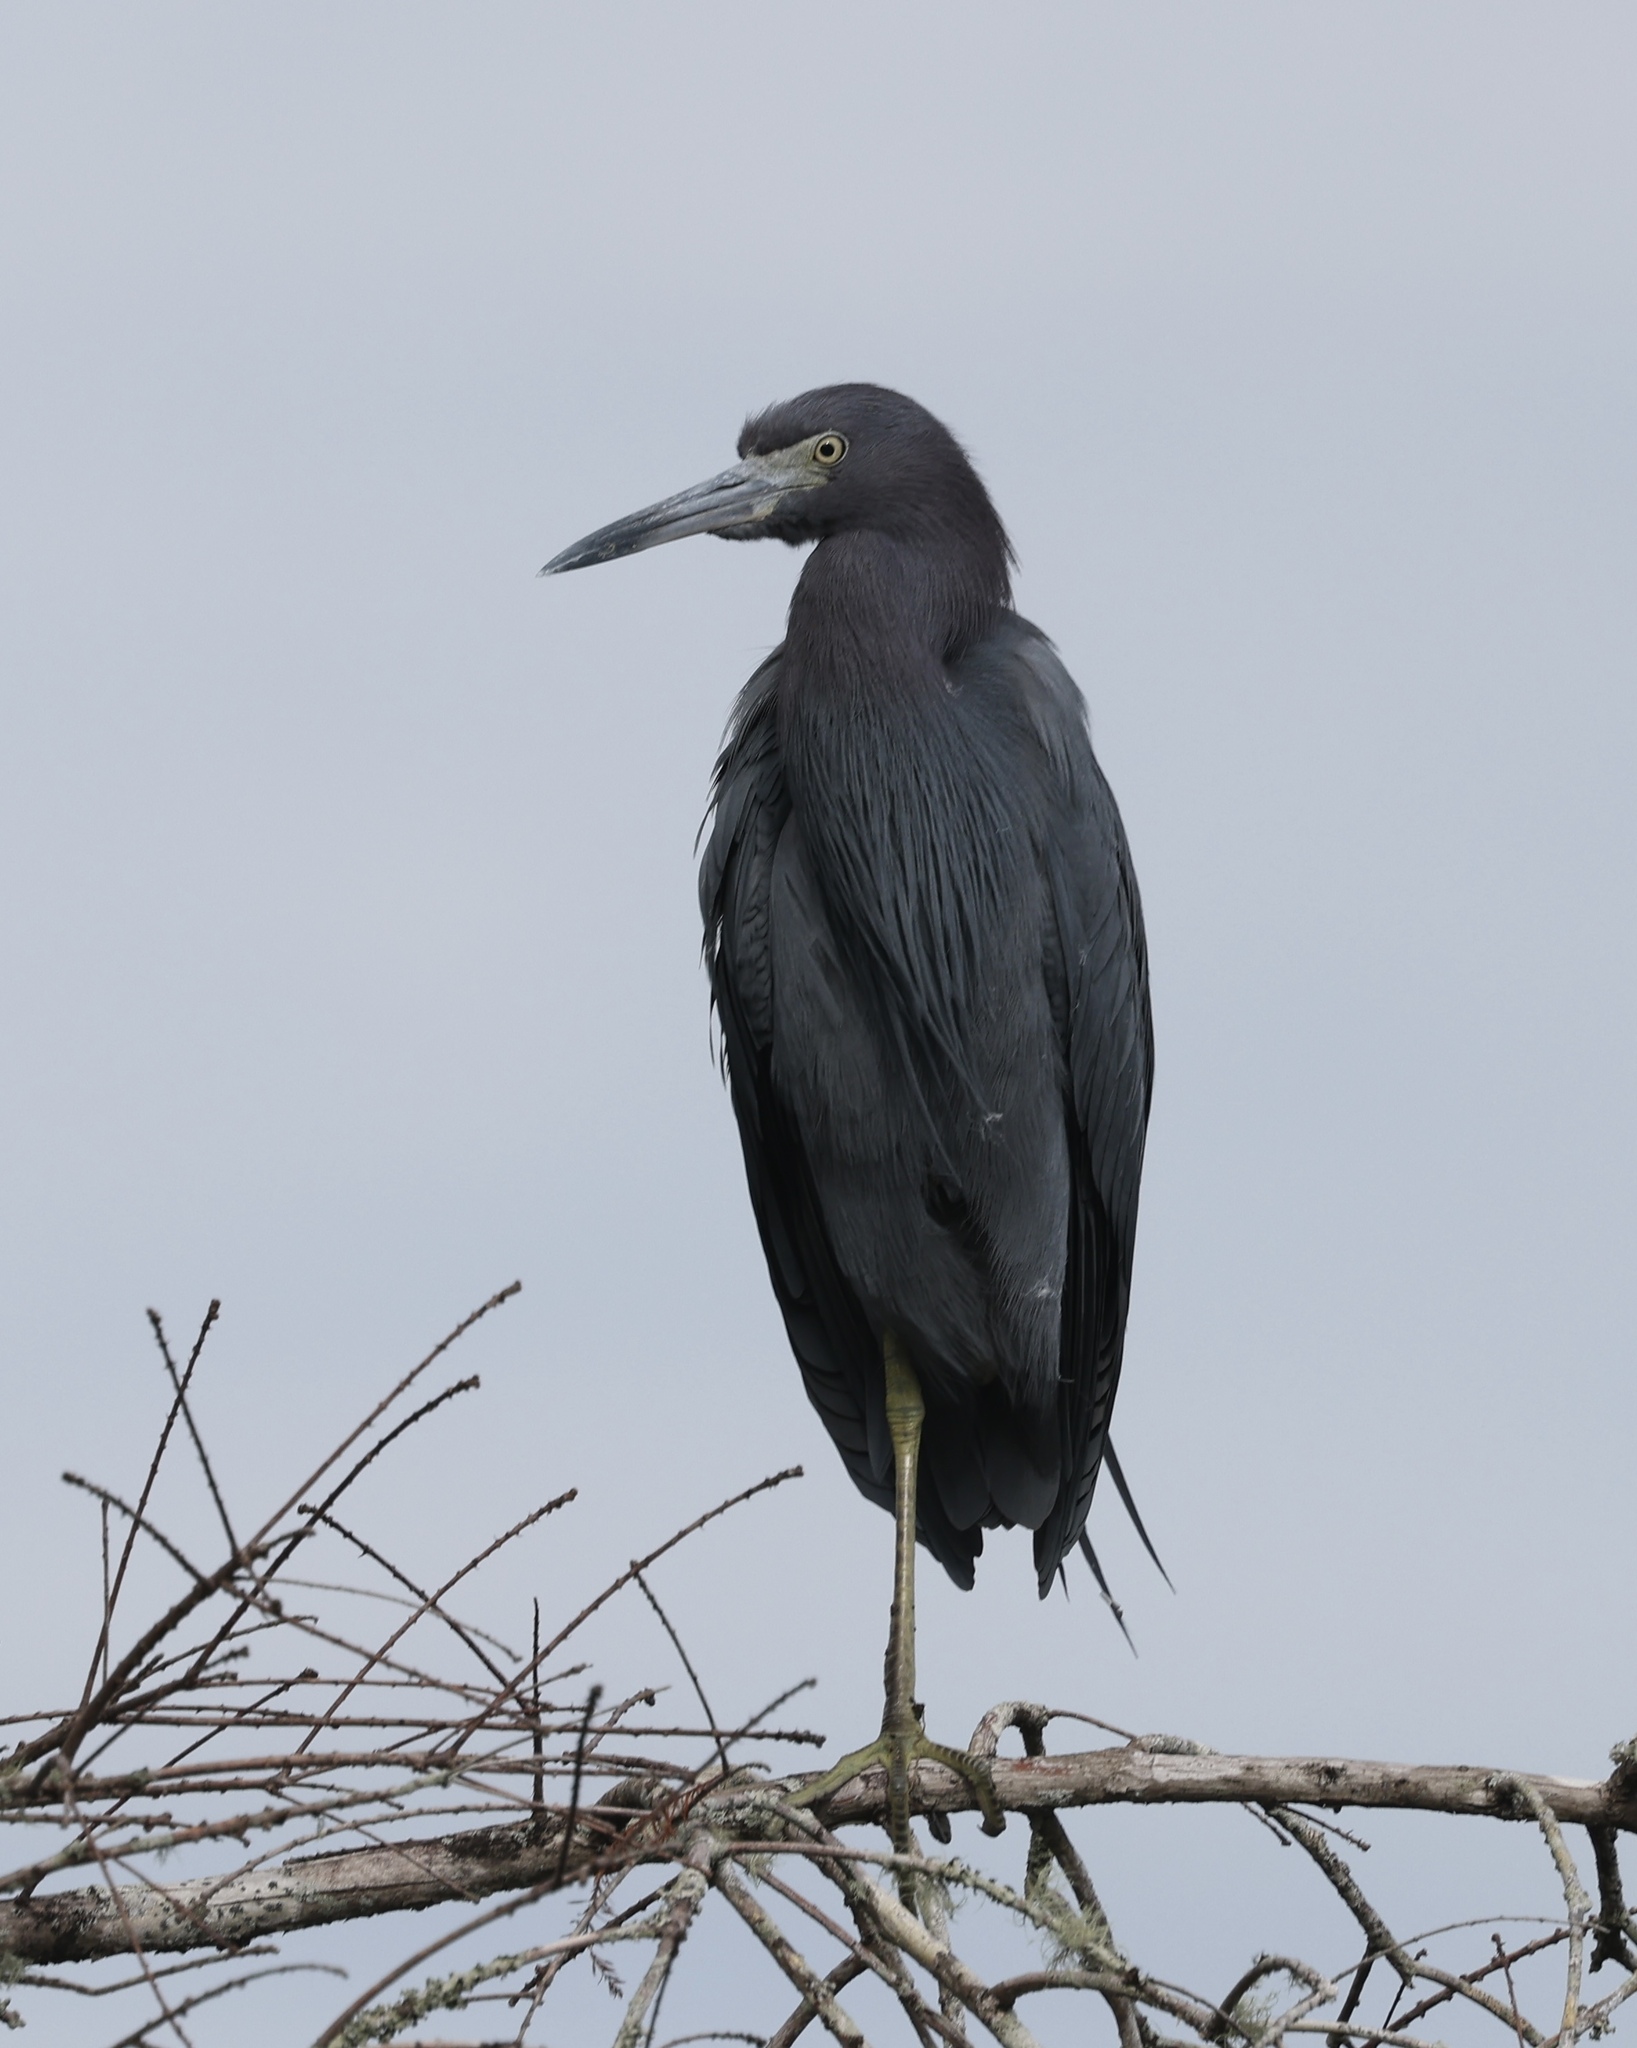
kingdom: Animalia
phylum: Chordata
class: Aves
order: Pelecaniformes
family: Ardeidae
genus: Egretta
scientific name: Egretta caerulea
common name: Little blue heron
